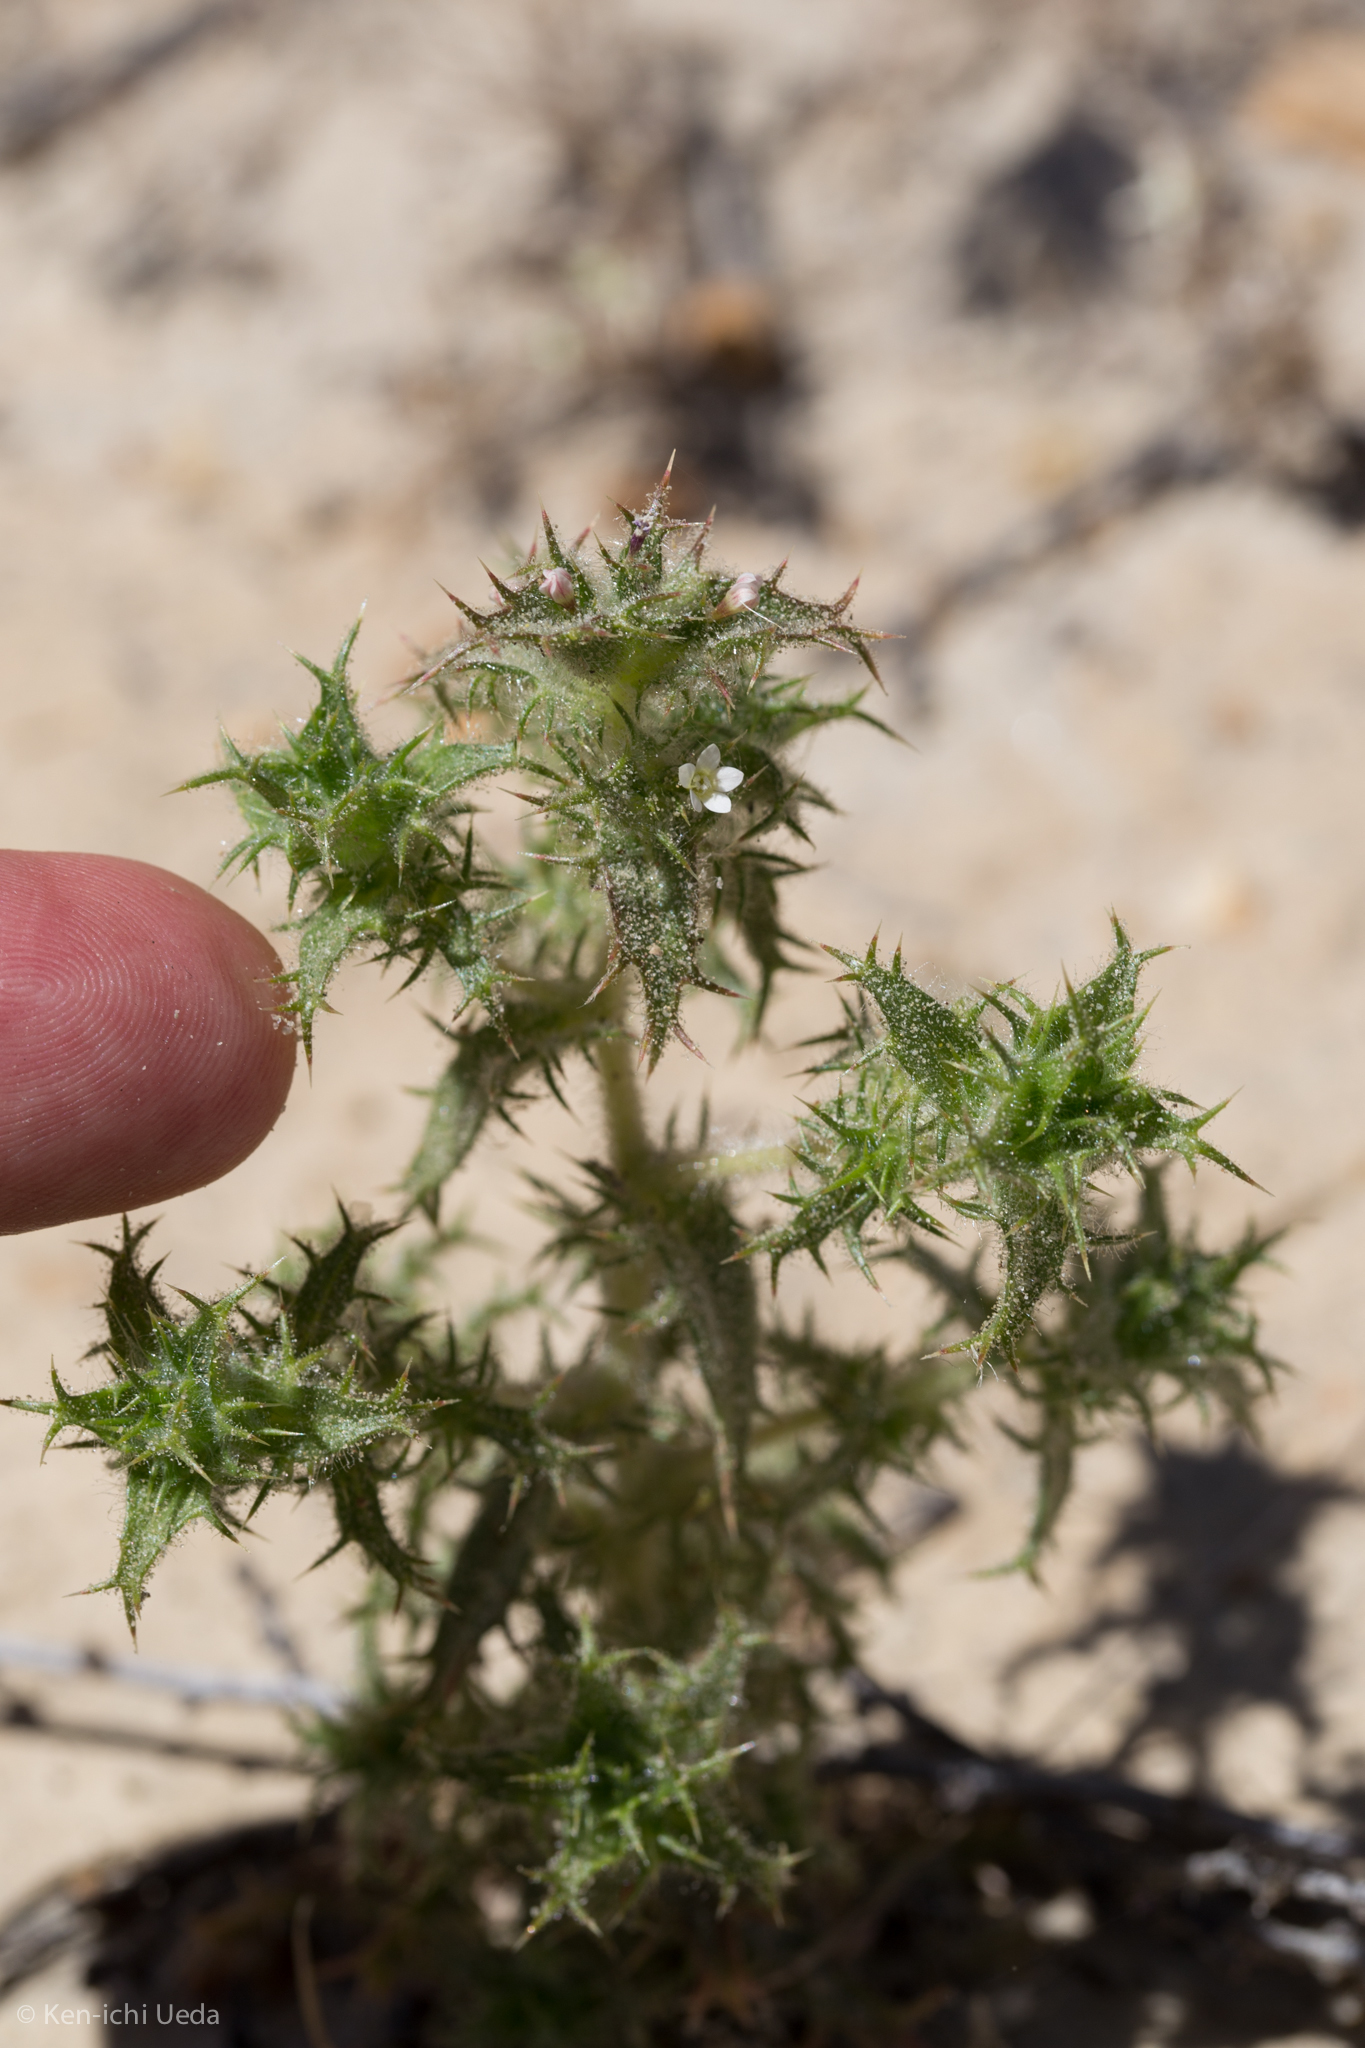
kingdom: Plantae
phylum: Tracheophyta
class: Magnoliopsida
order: Ericales
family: Polemoniaceae
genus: Navarretia
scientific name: Navarretia atractyloides
